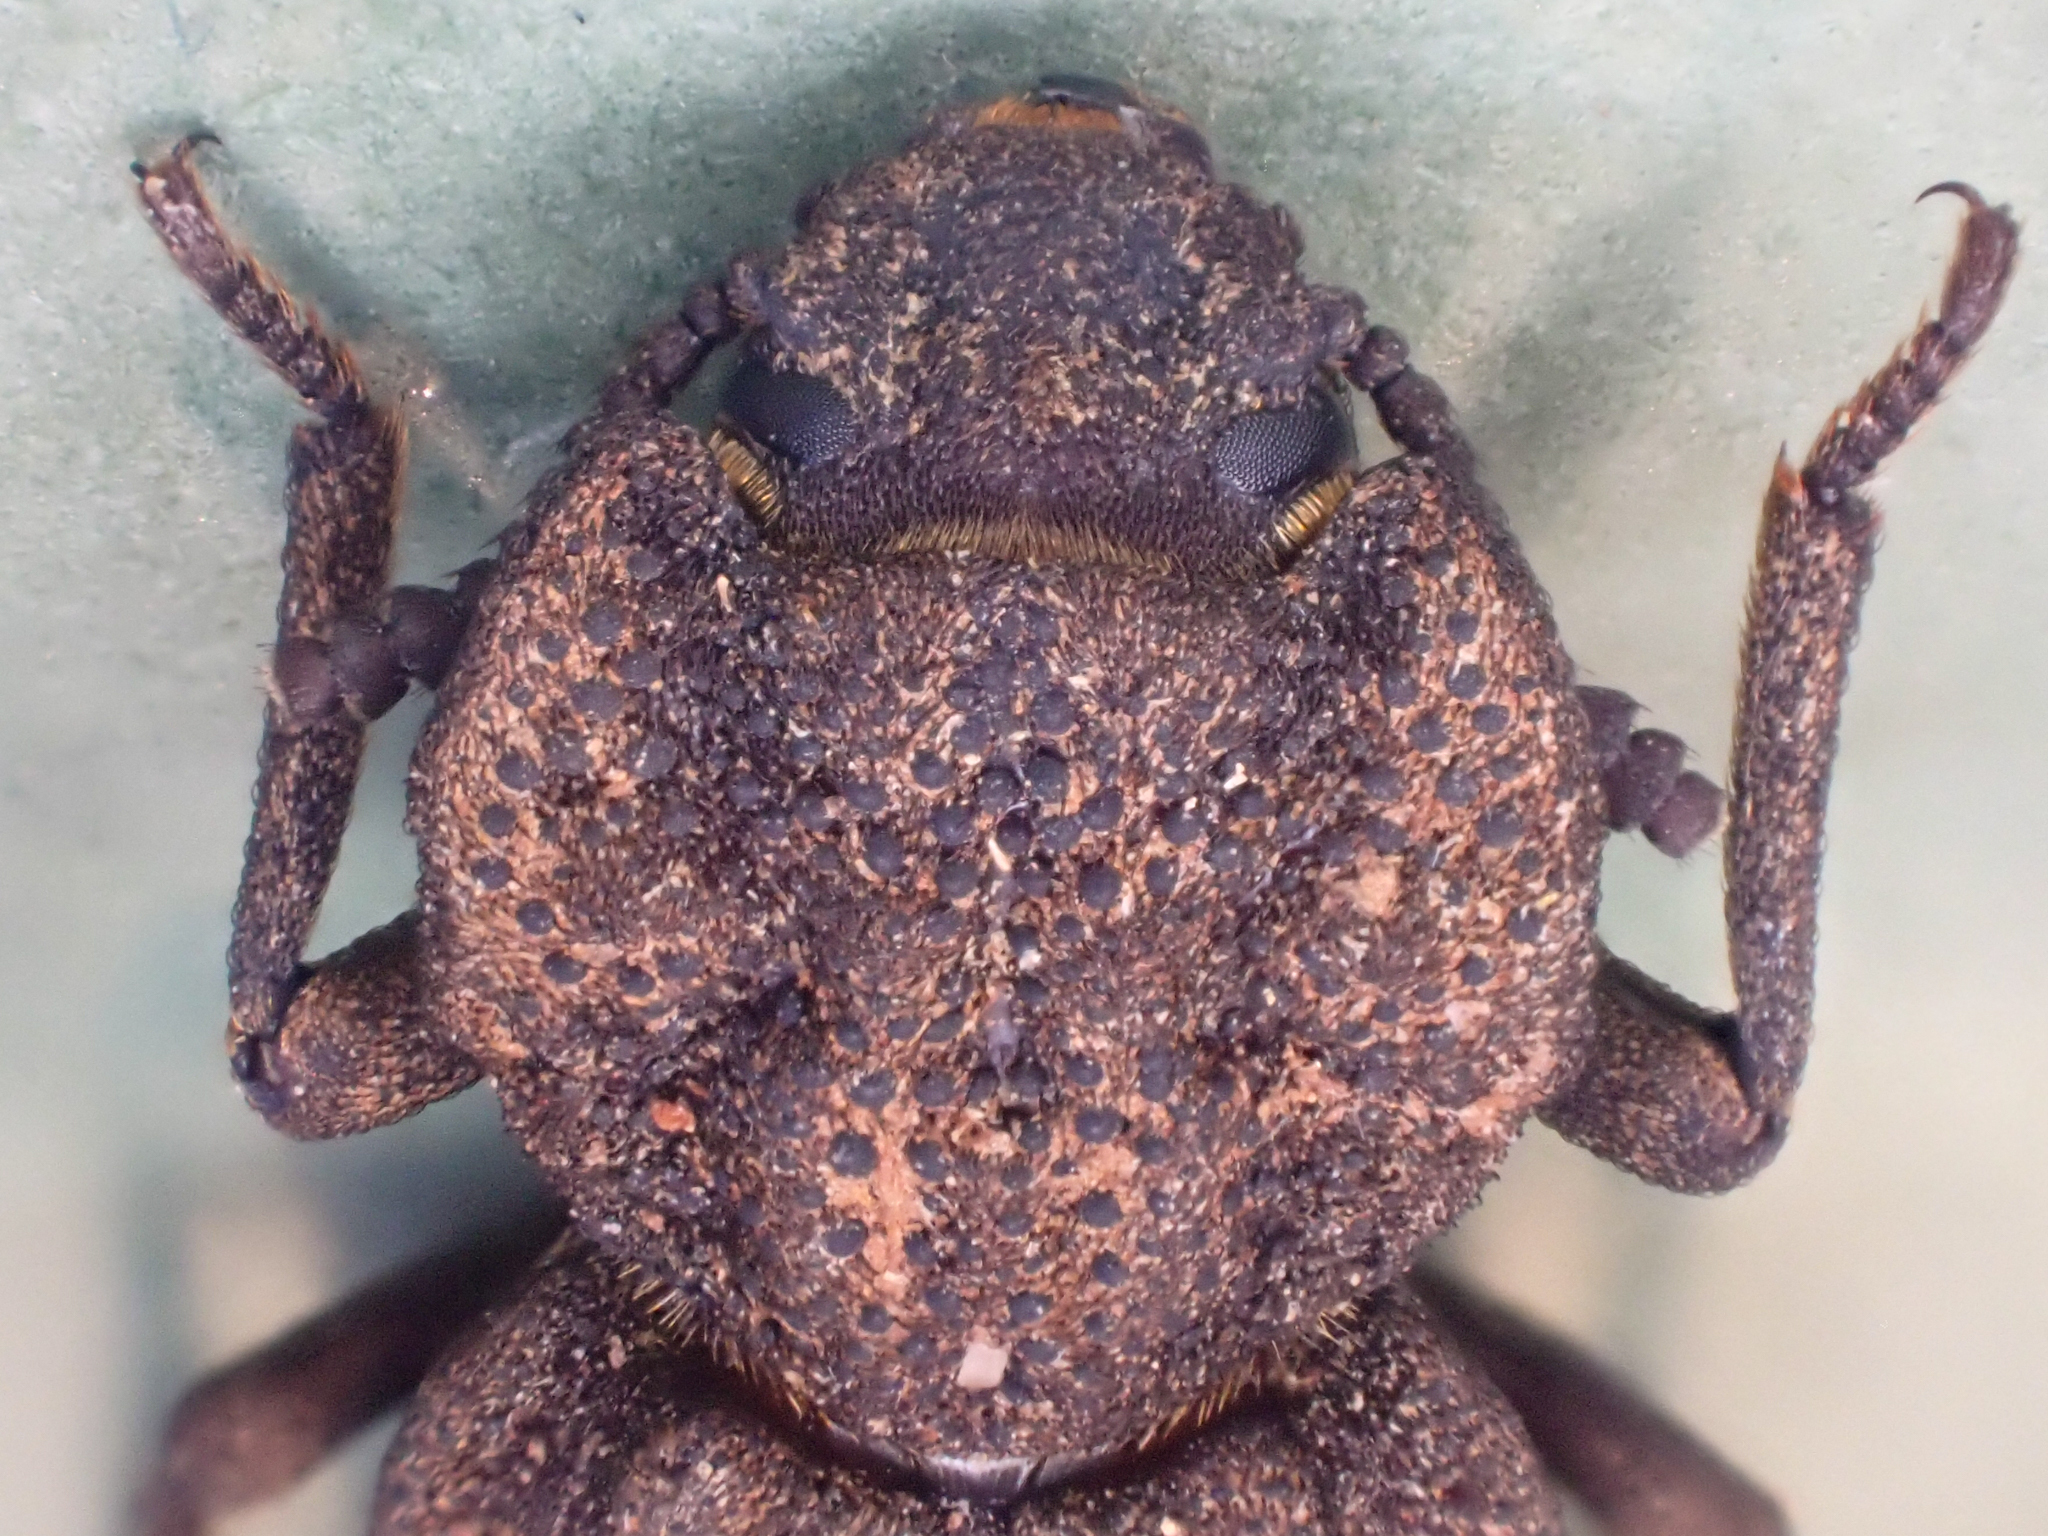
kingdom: Animalia
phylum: Arthropoda
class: Insecta
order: Coleoptera
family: Zopheridae
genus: Phellopsis
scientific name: Phellopsis porcata
